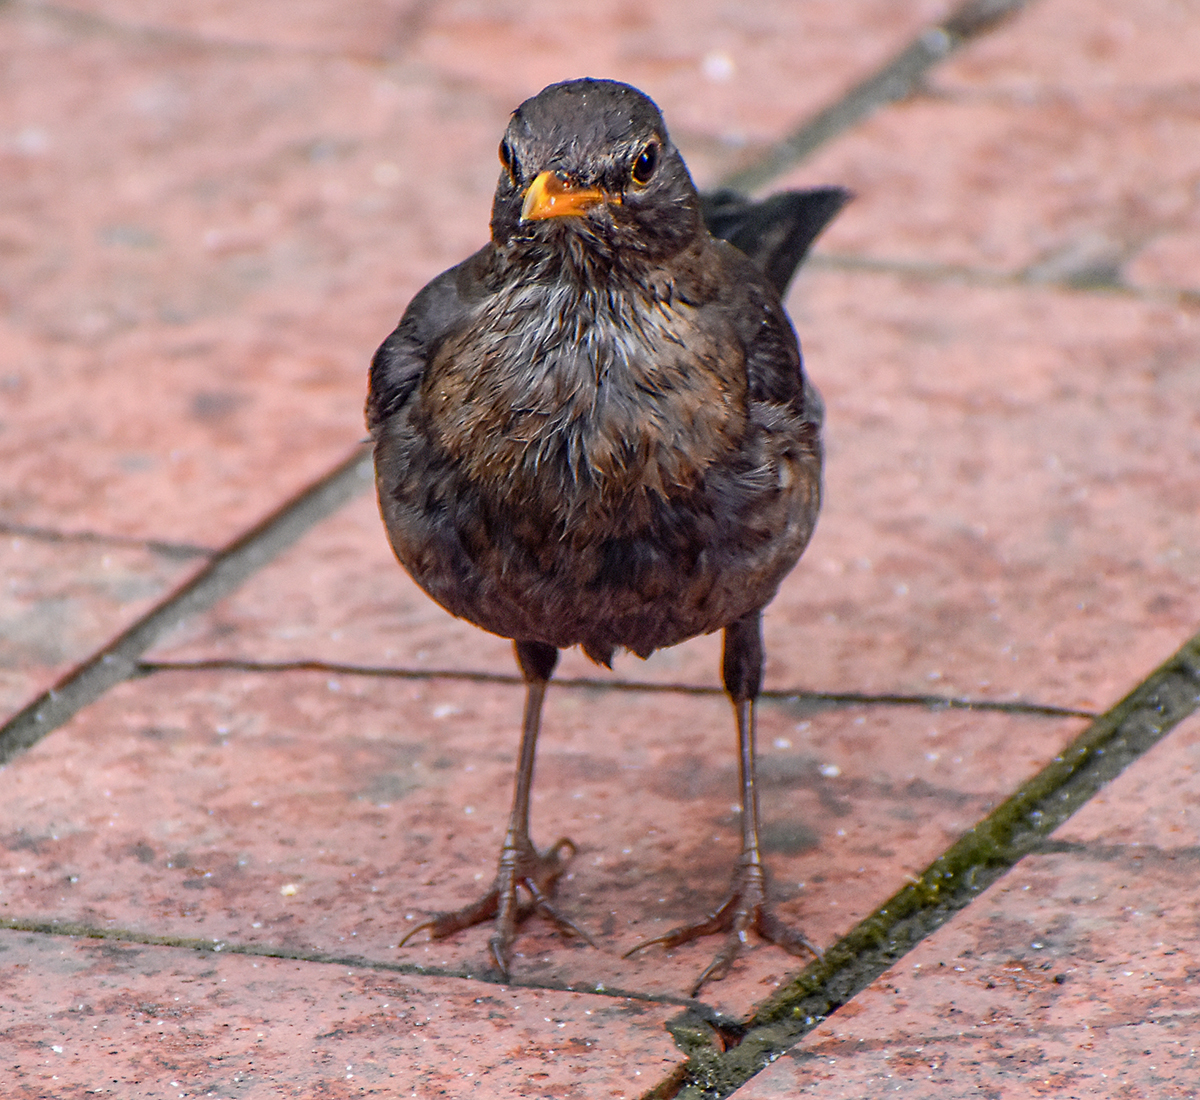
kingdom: Animalia
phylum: Chordata
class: Aves
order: Passeriformes
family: Turdidae
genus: Turdus
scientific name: Turdus merula
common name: Common blackbird
